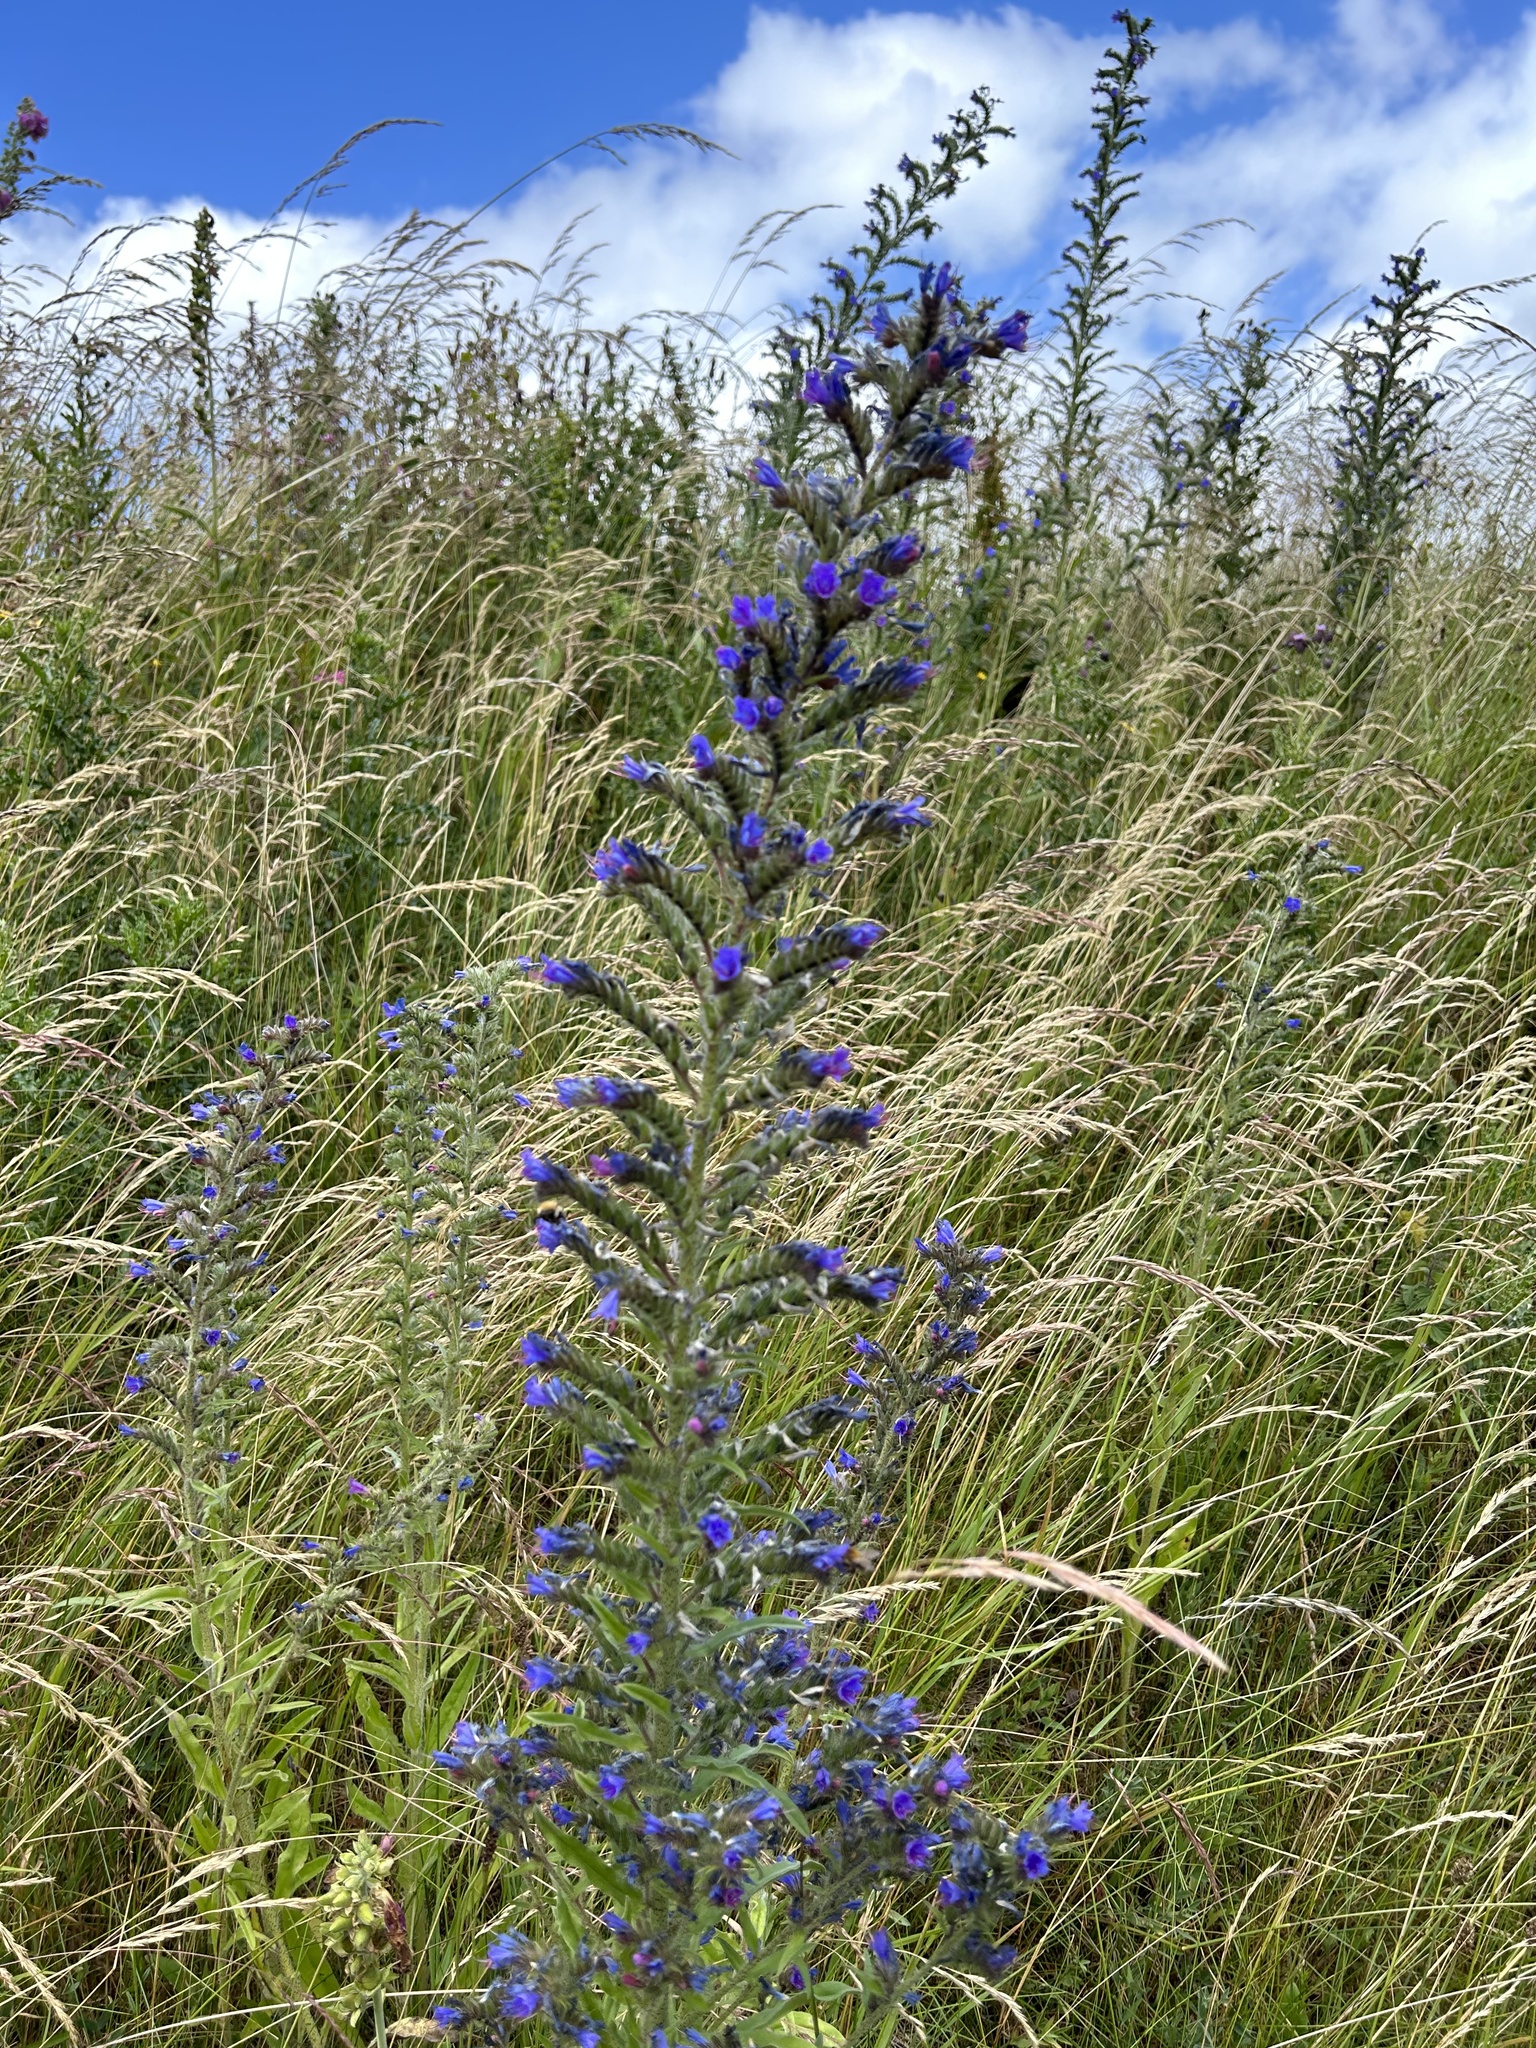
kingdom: Plantae
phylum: Tracheophyta
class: Magnoliopsida
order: Boraginales
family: Boraginaceae
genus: Echium
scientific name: Echium vulgare
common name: Common viper's bugloss
